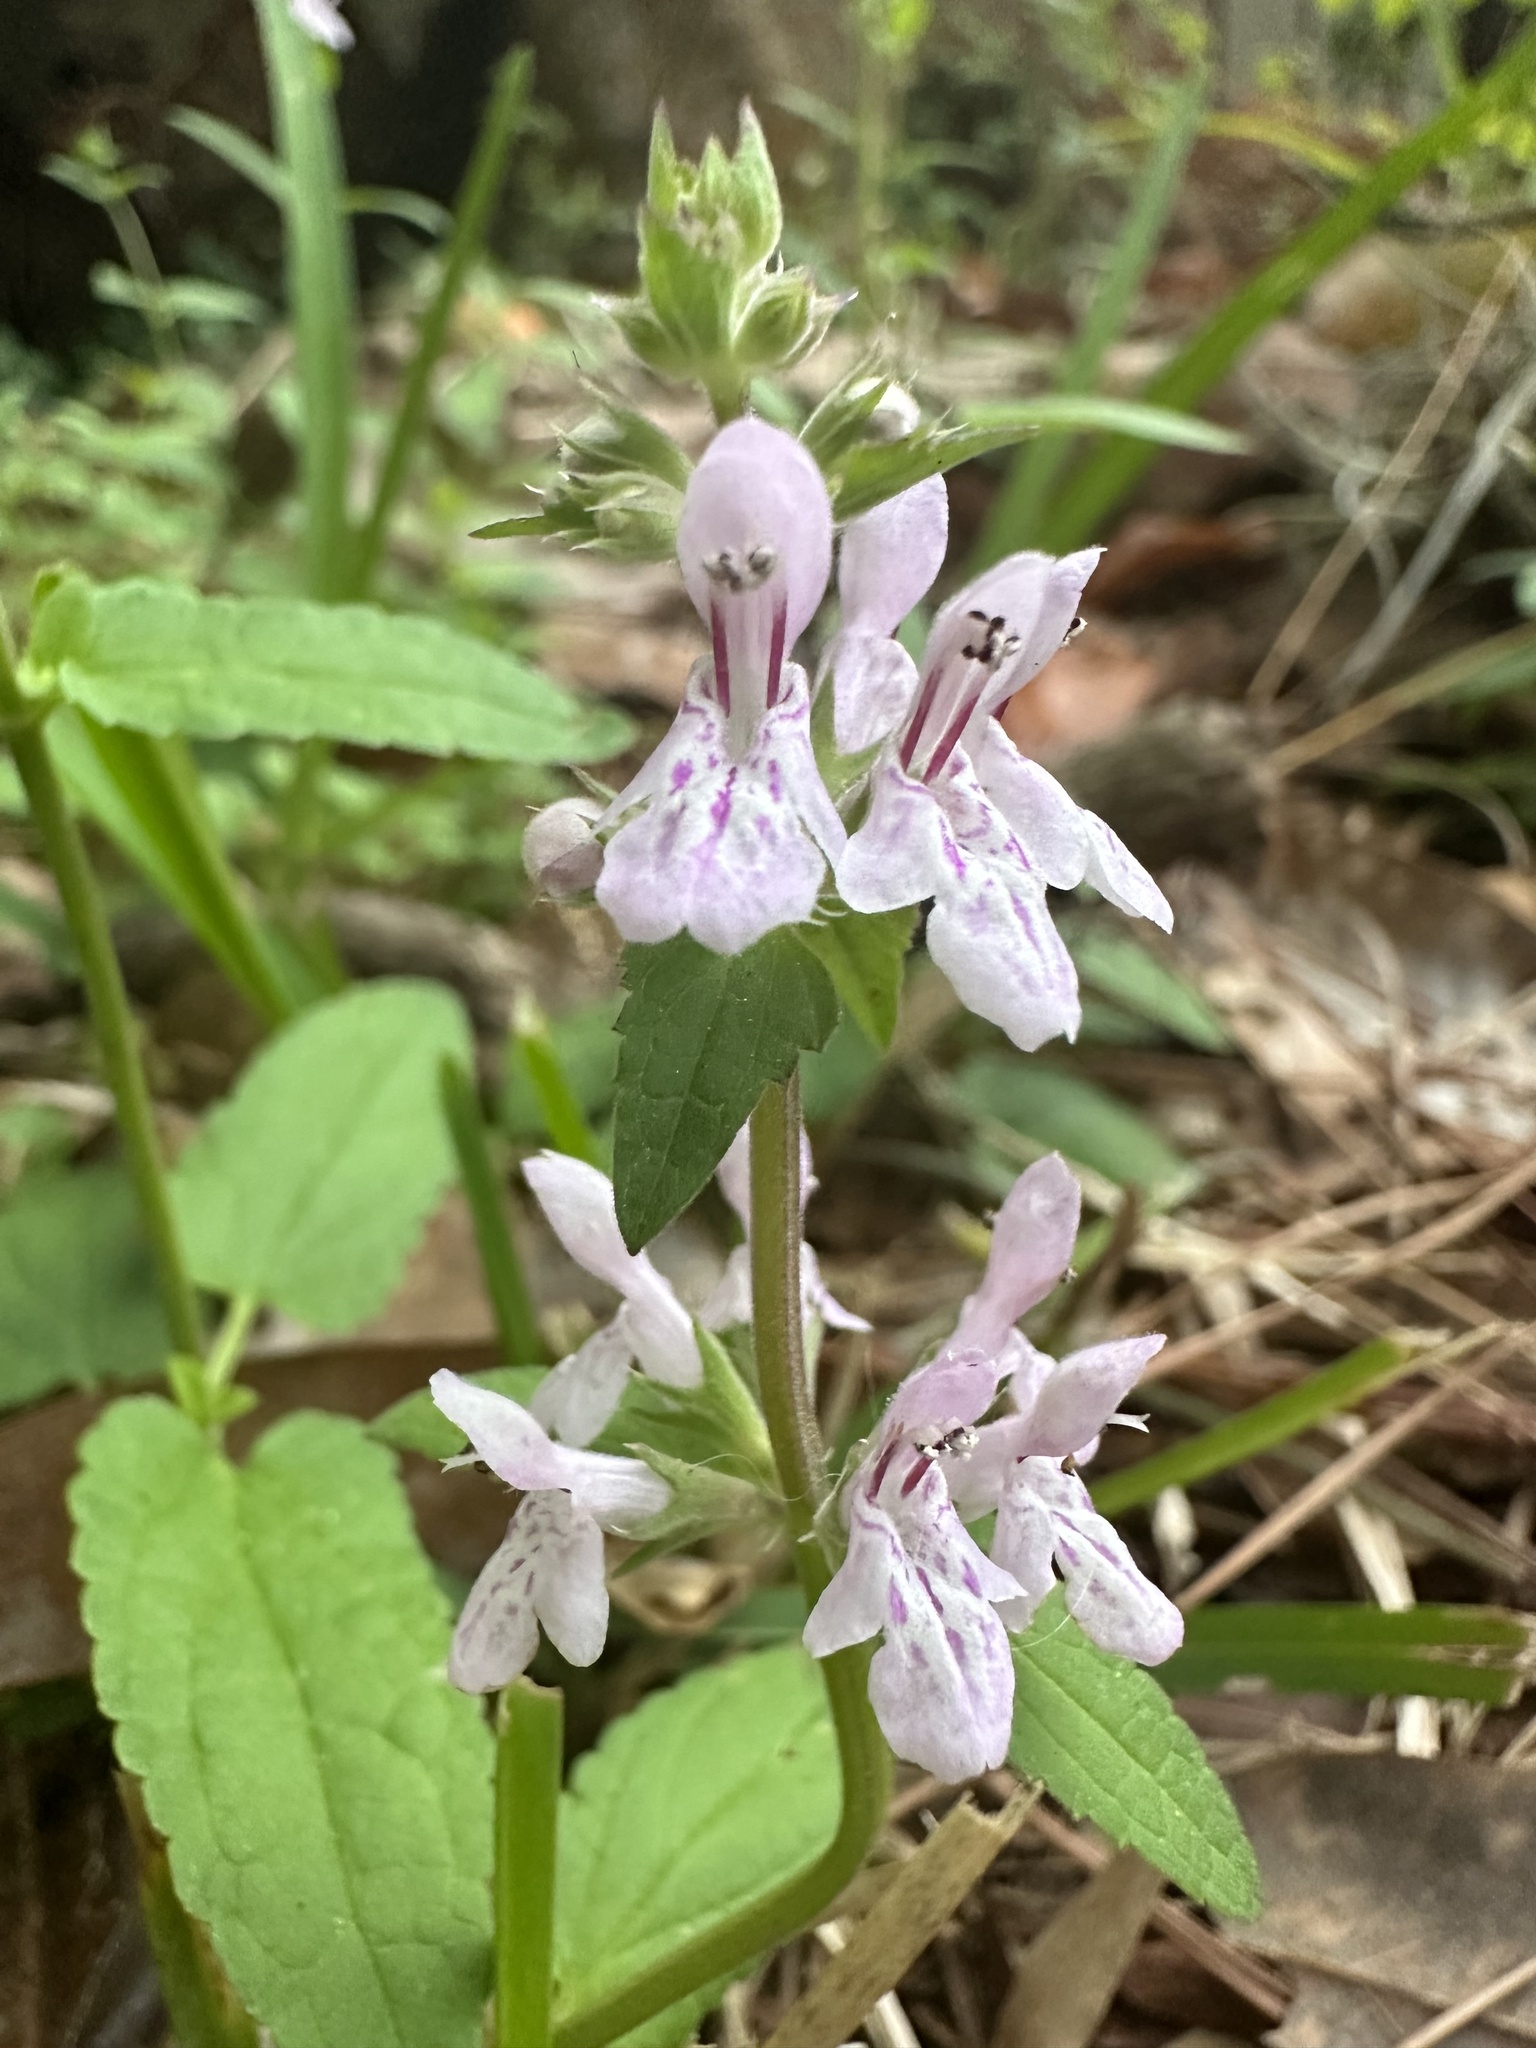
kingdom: Plantae
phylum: Tracheophyta
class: Magnoliopsida
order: Lamiales
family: Lamiaceae
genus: Stachys
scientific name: Stachys floridana
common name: Florida betony
